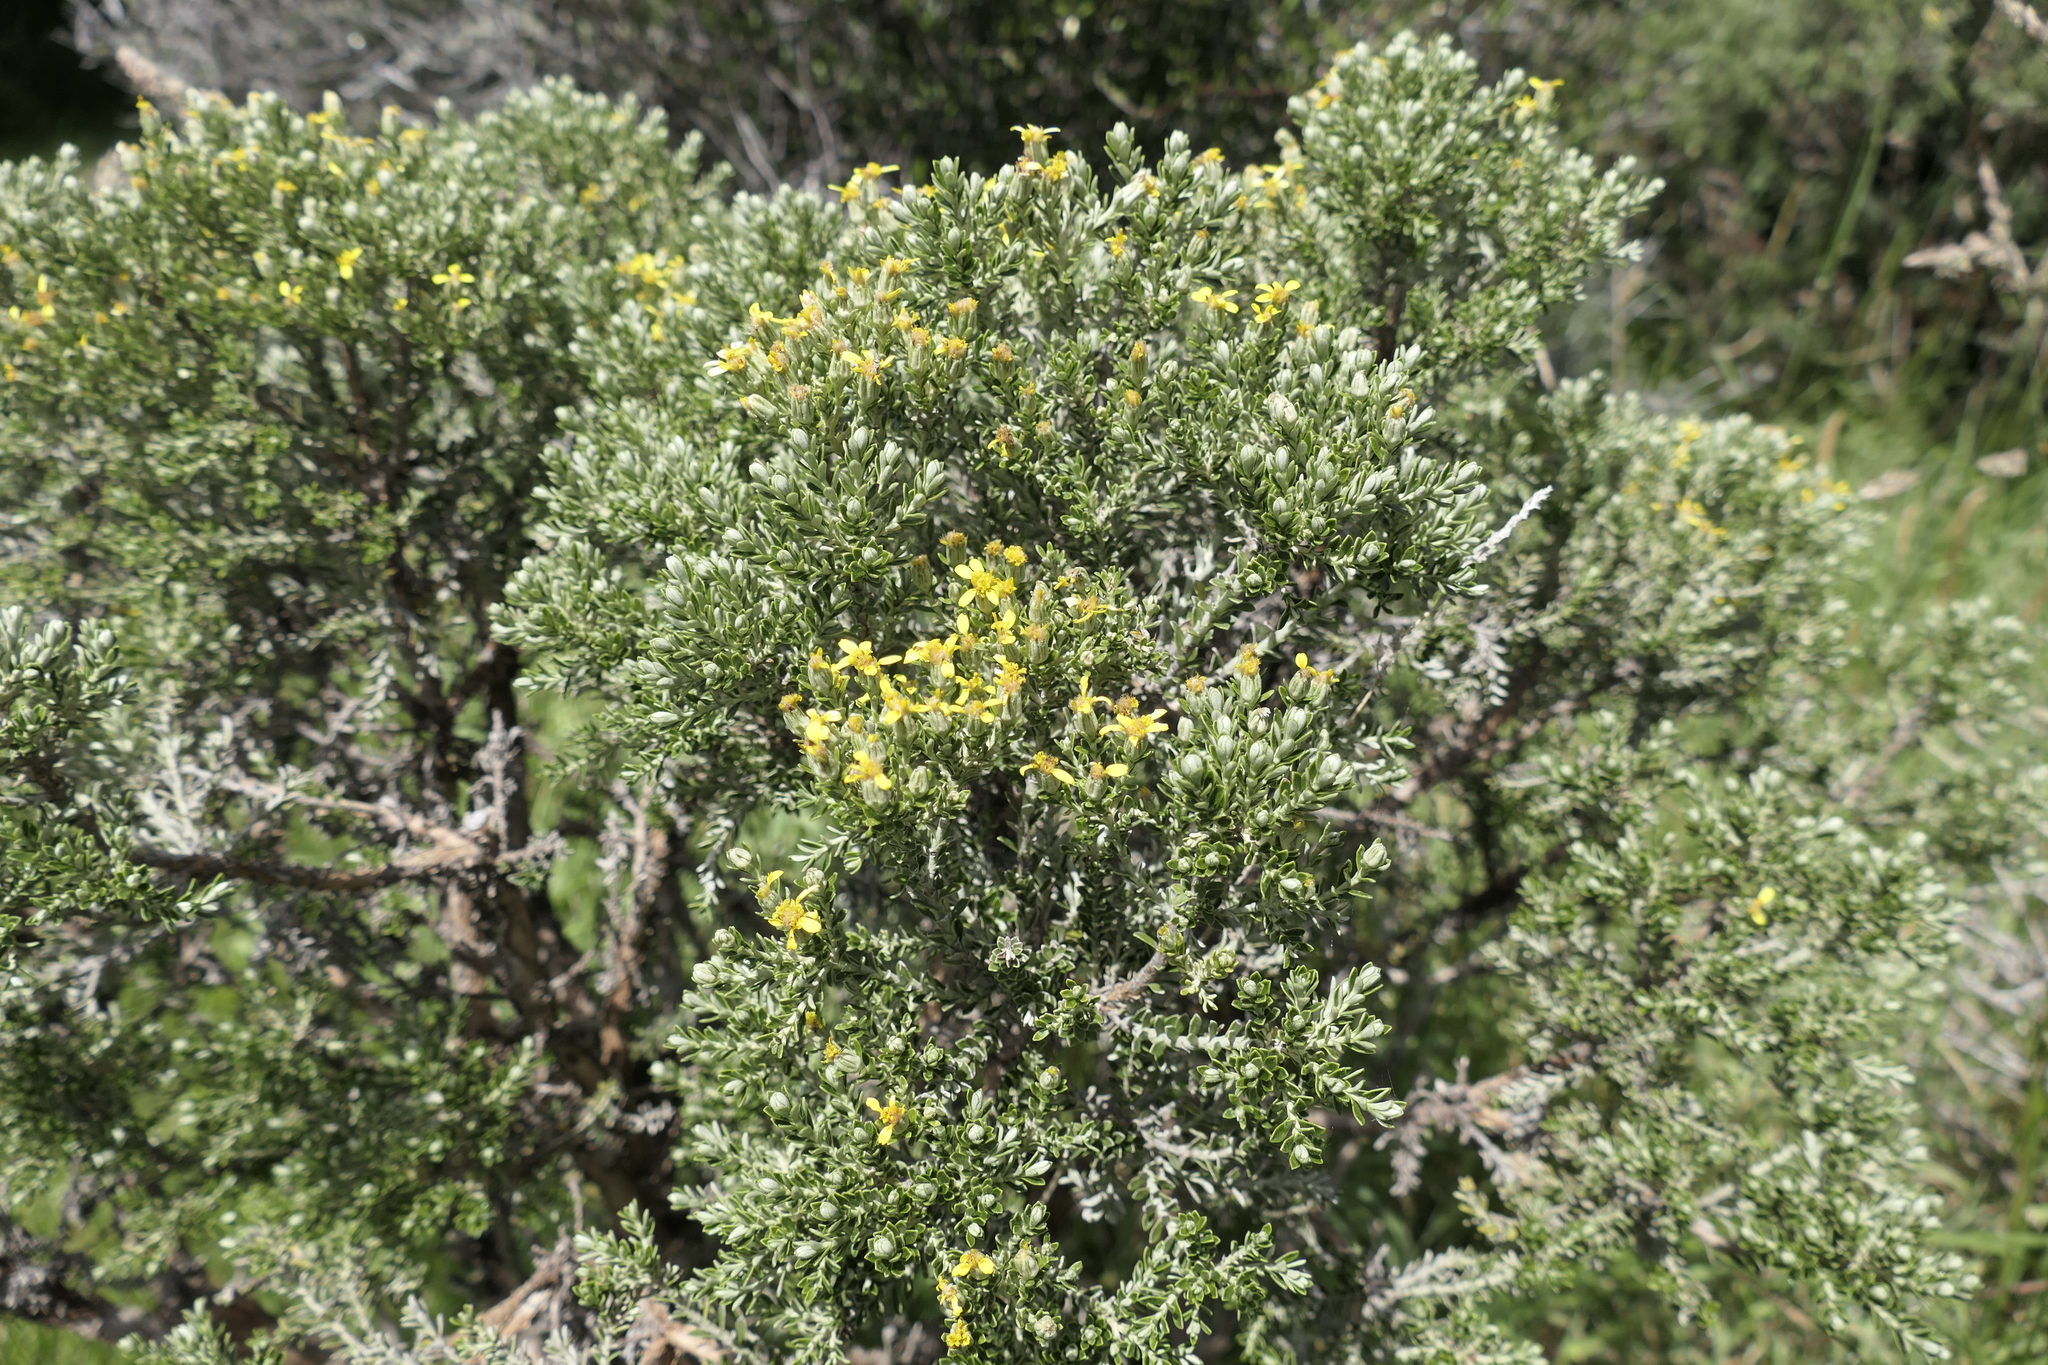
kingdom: Plantae
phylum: Tracheophyta
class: Magnoliopsida
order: Asterales
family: Asteraceae
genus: Brachyglottis
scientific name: Brachyglottis cassinioides
